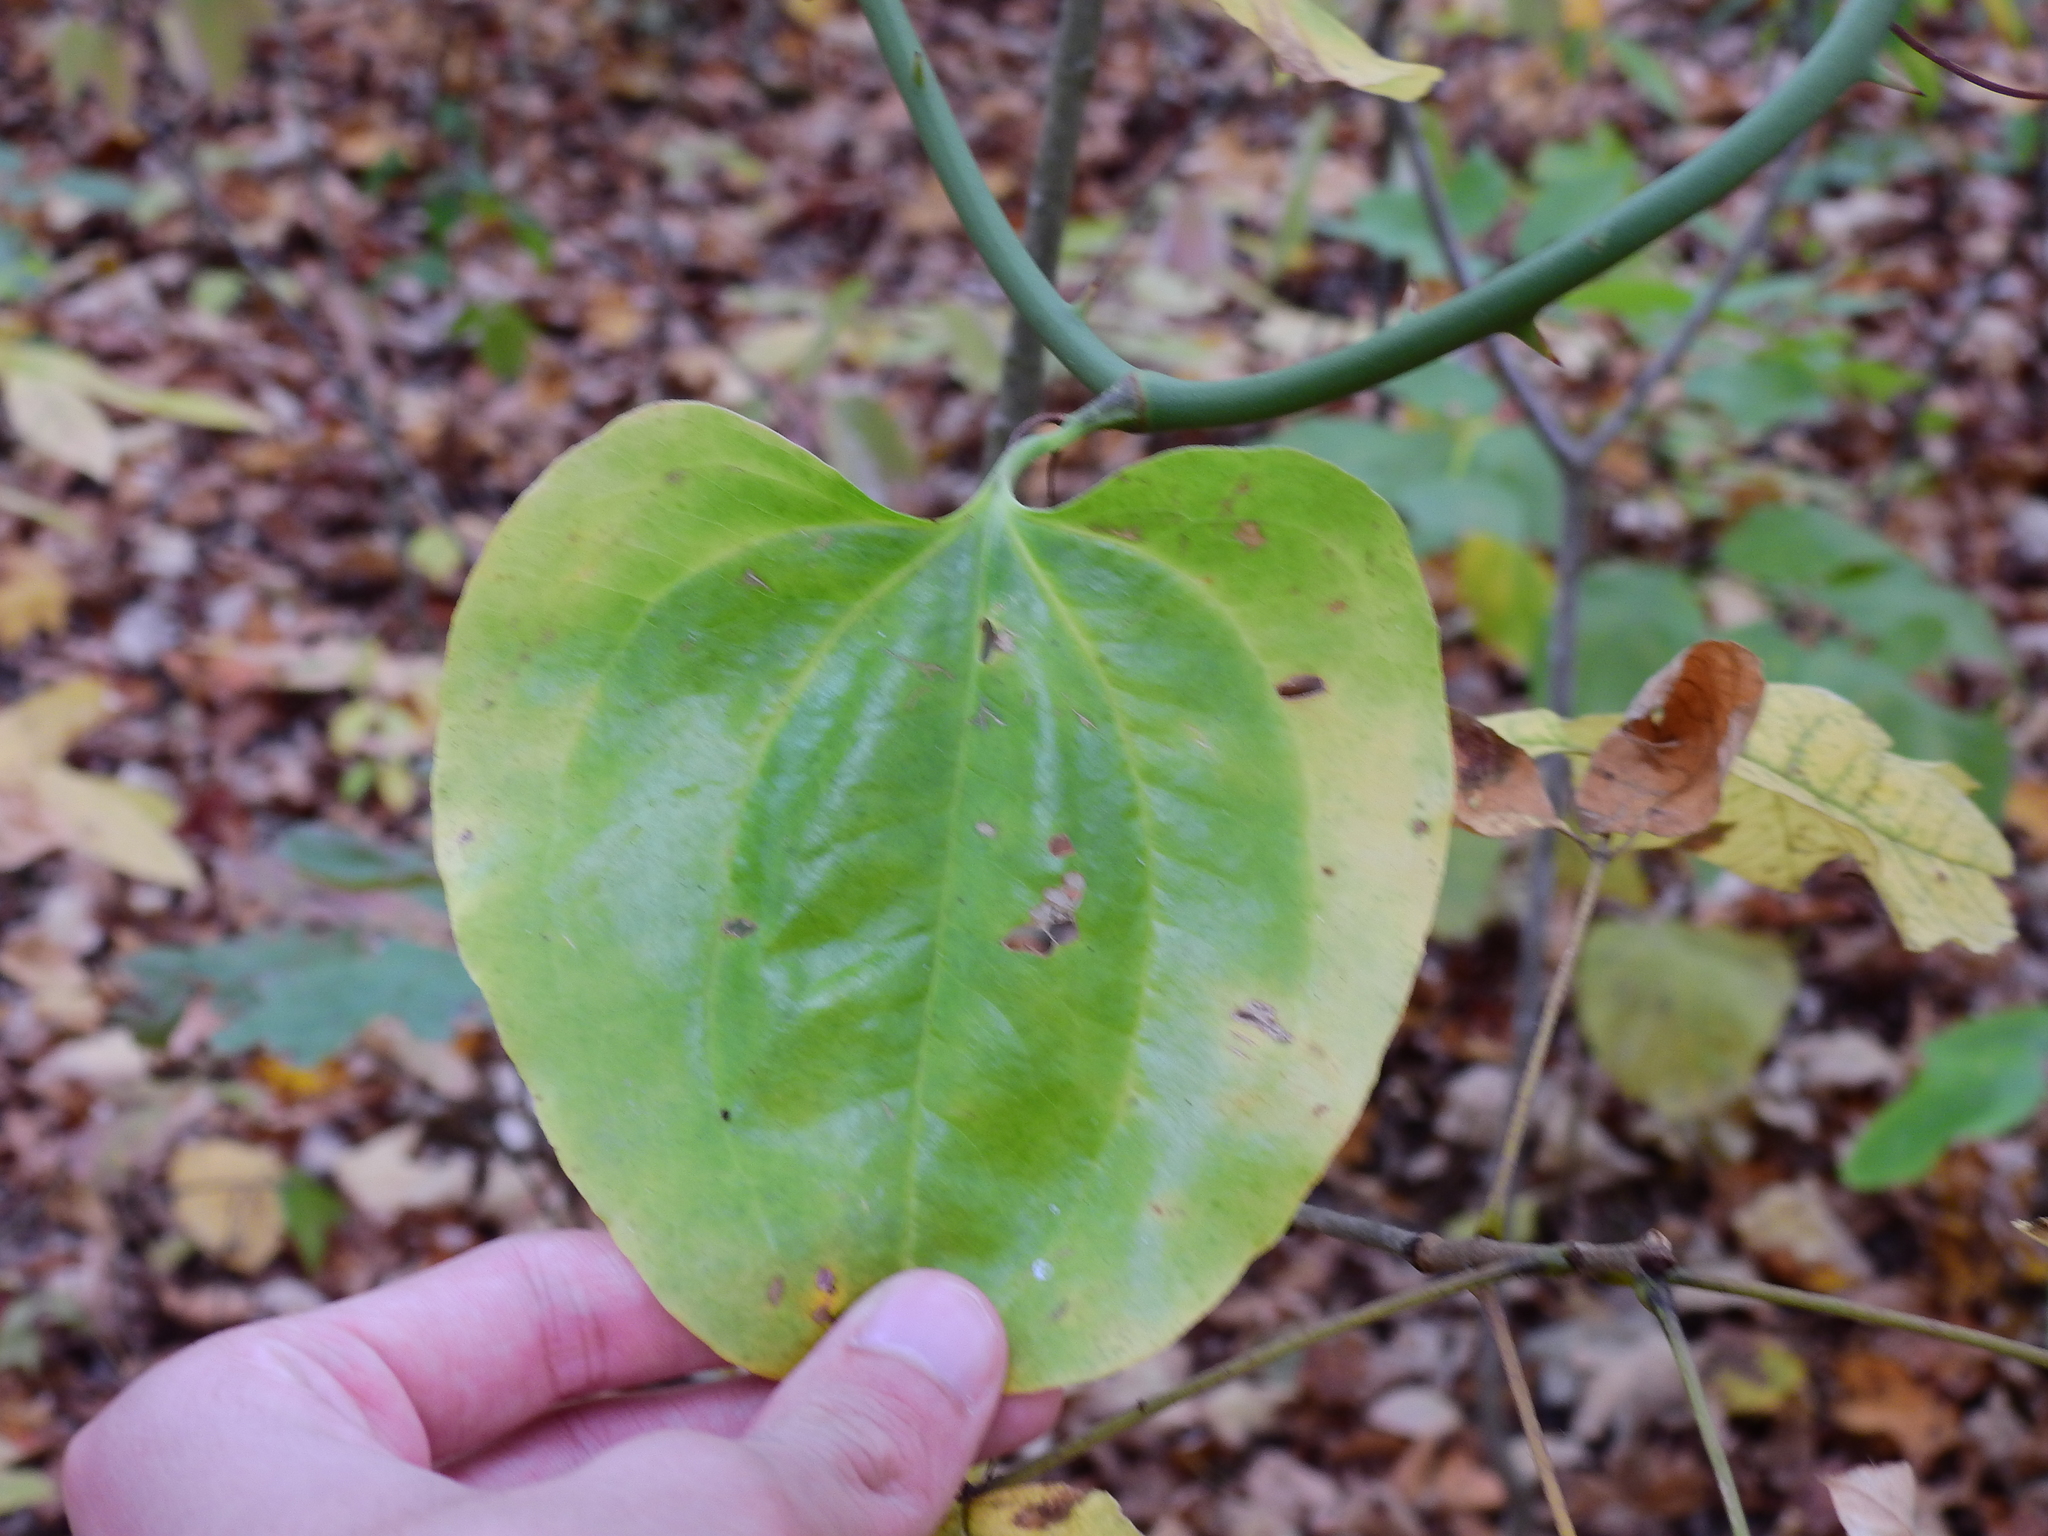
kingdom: Plantae
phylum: Tracheophyta
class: Liliopsida
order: Liliales
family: Smilacaceae
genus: Smilax
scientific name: Smilax rotundifolia
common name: Bullbriar
